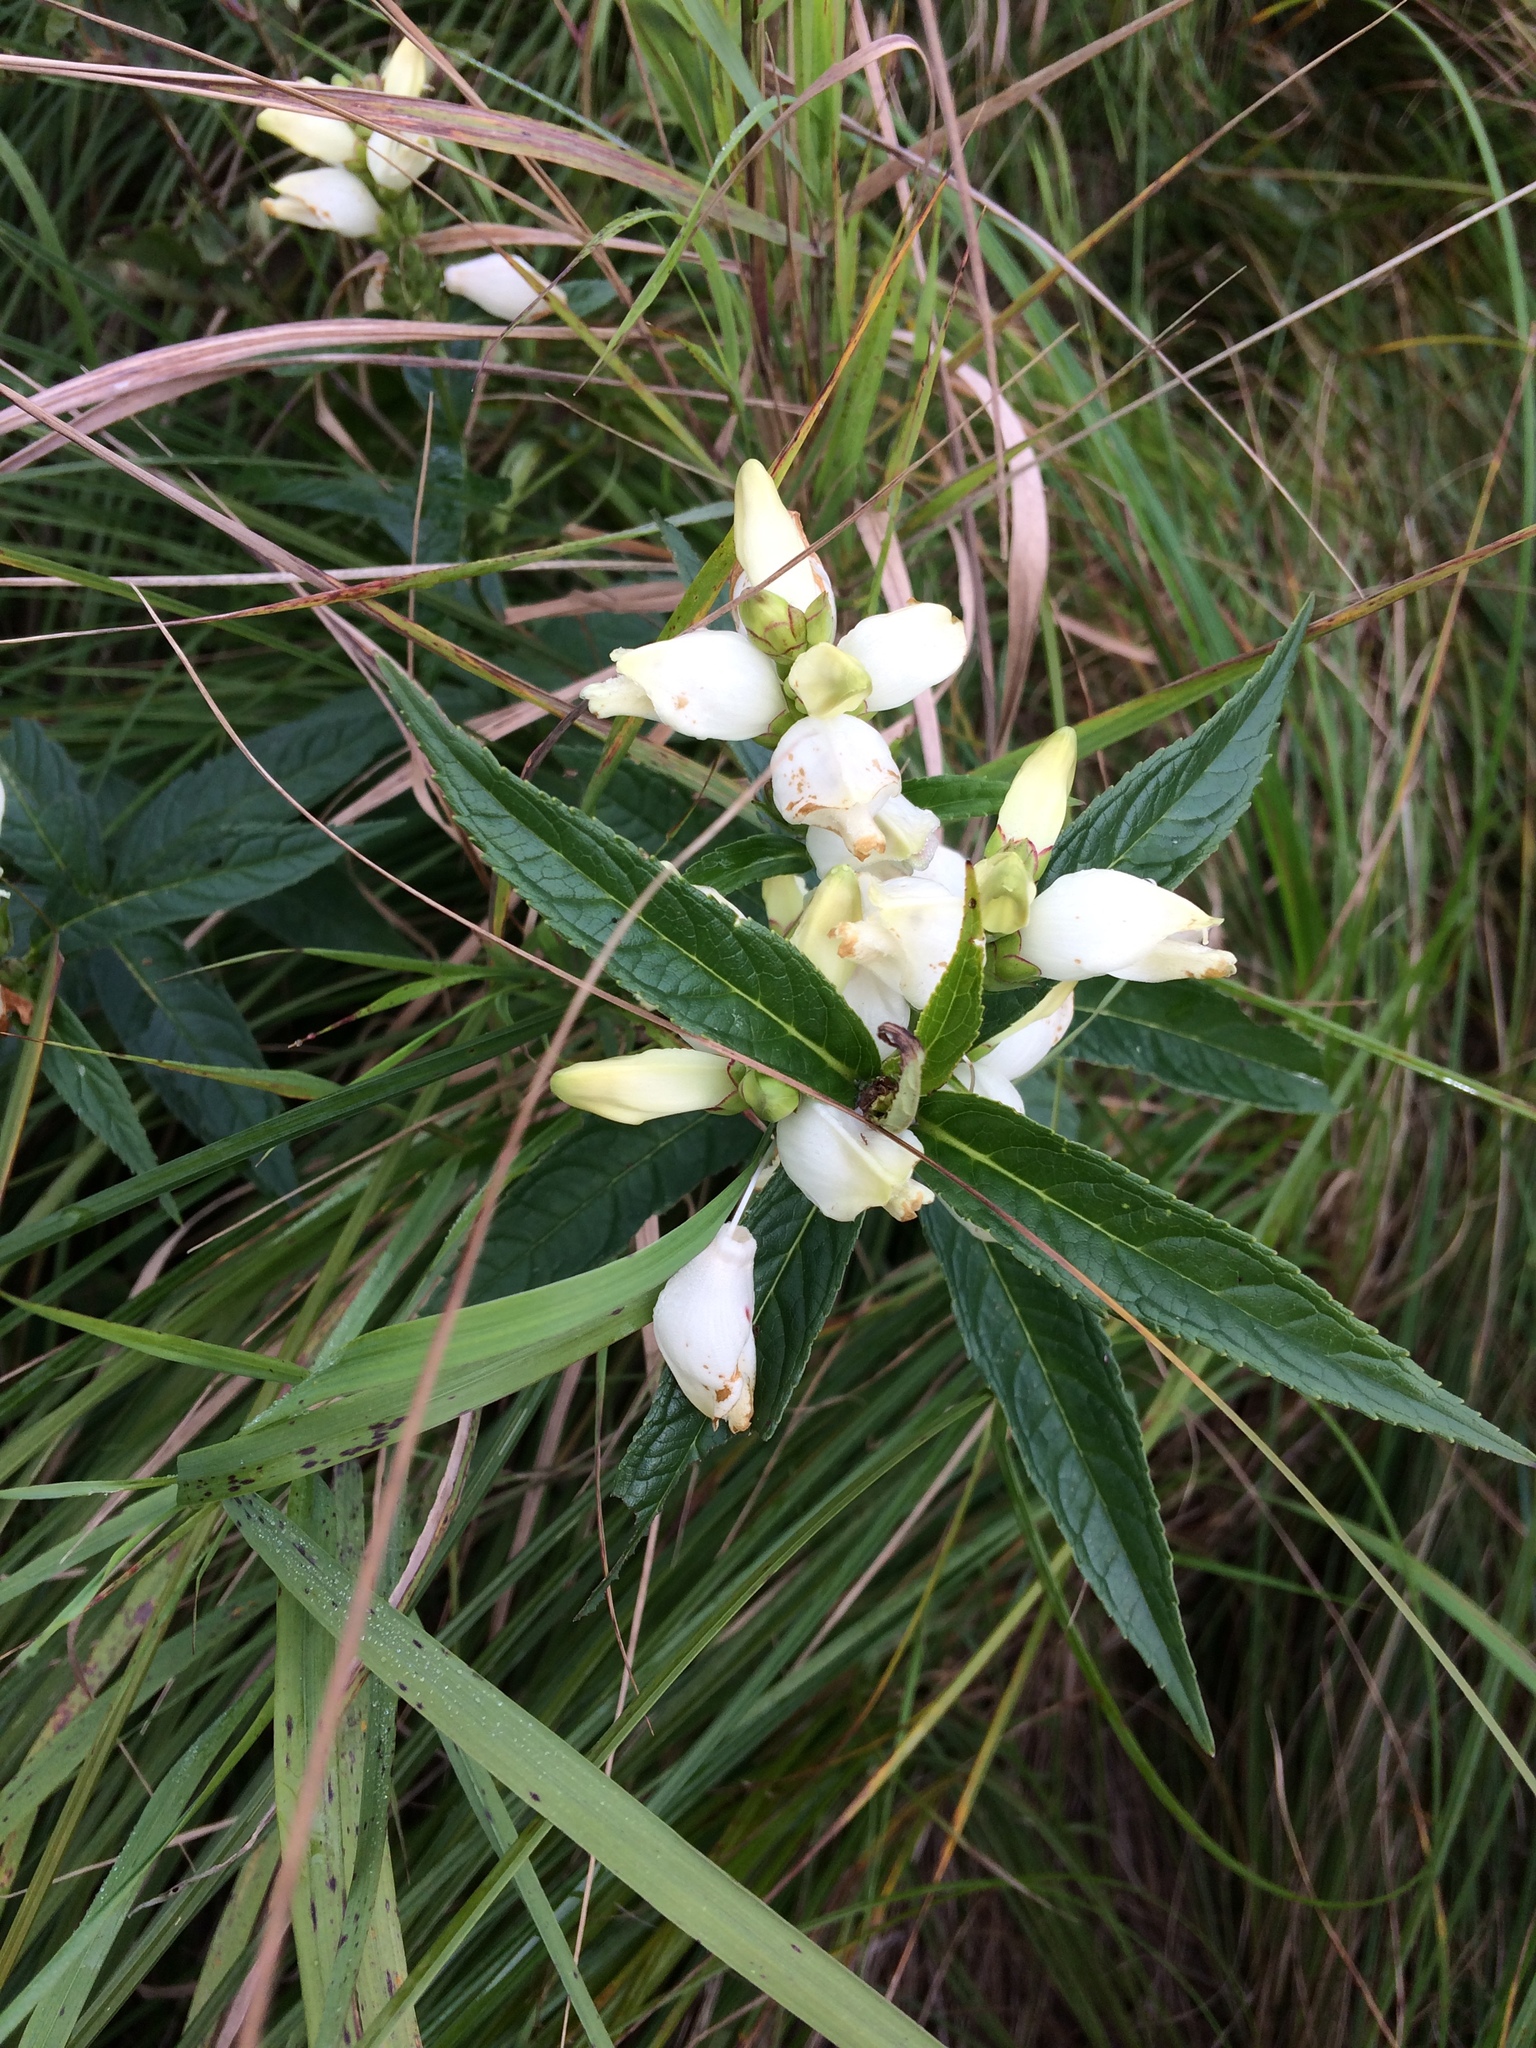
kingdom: Plantae
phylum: Tracheophyta
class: Magnoliopsida
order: Lamiales
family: Plantaginaceae
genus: Chelone
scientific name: Chelone glabra
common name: Snakehead
